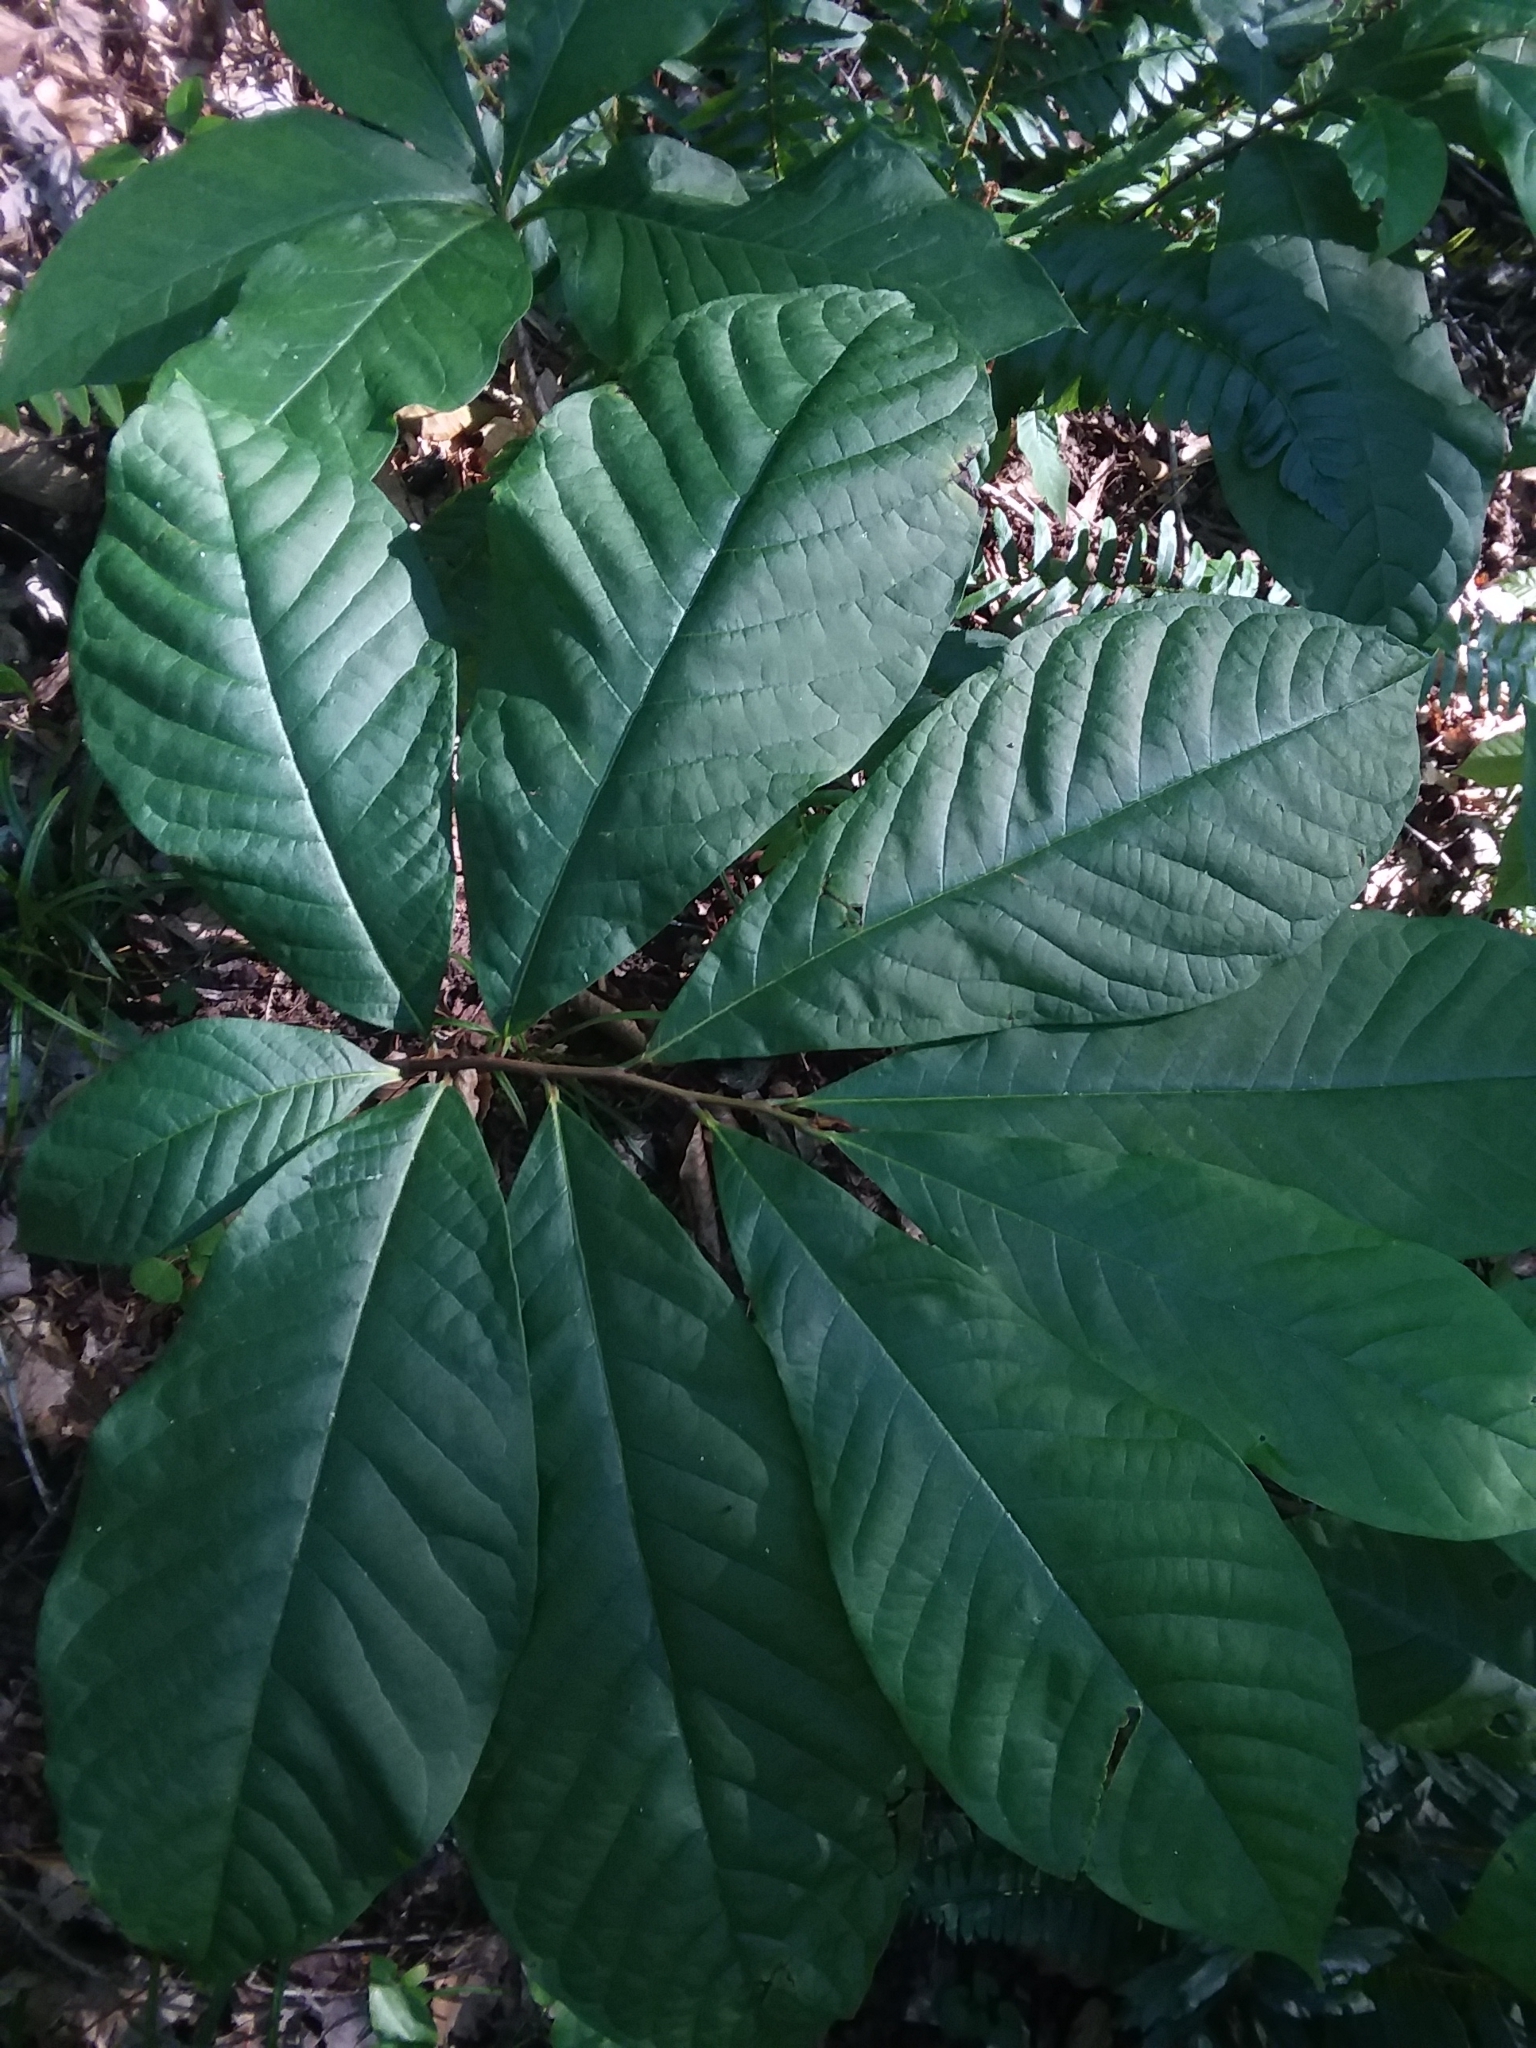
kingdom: Plantae
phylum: Tracheophyta
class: Magnoliopsida
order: Magnoliales
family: Annonaceae
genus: Asimina
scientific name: Asimina triloba
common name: Dog-banana
